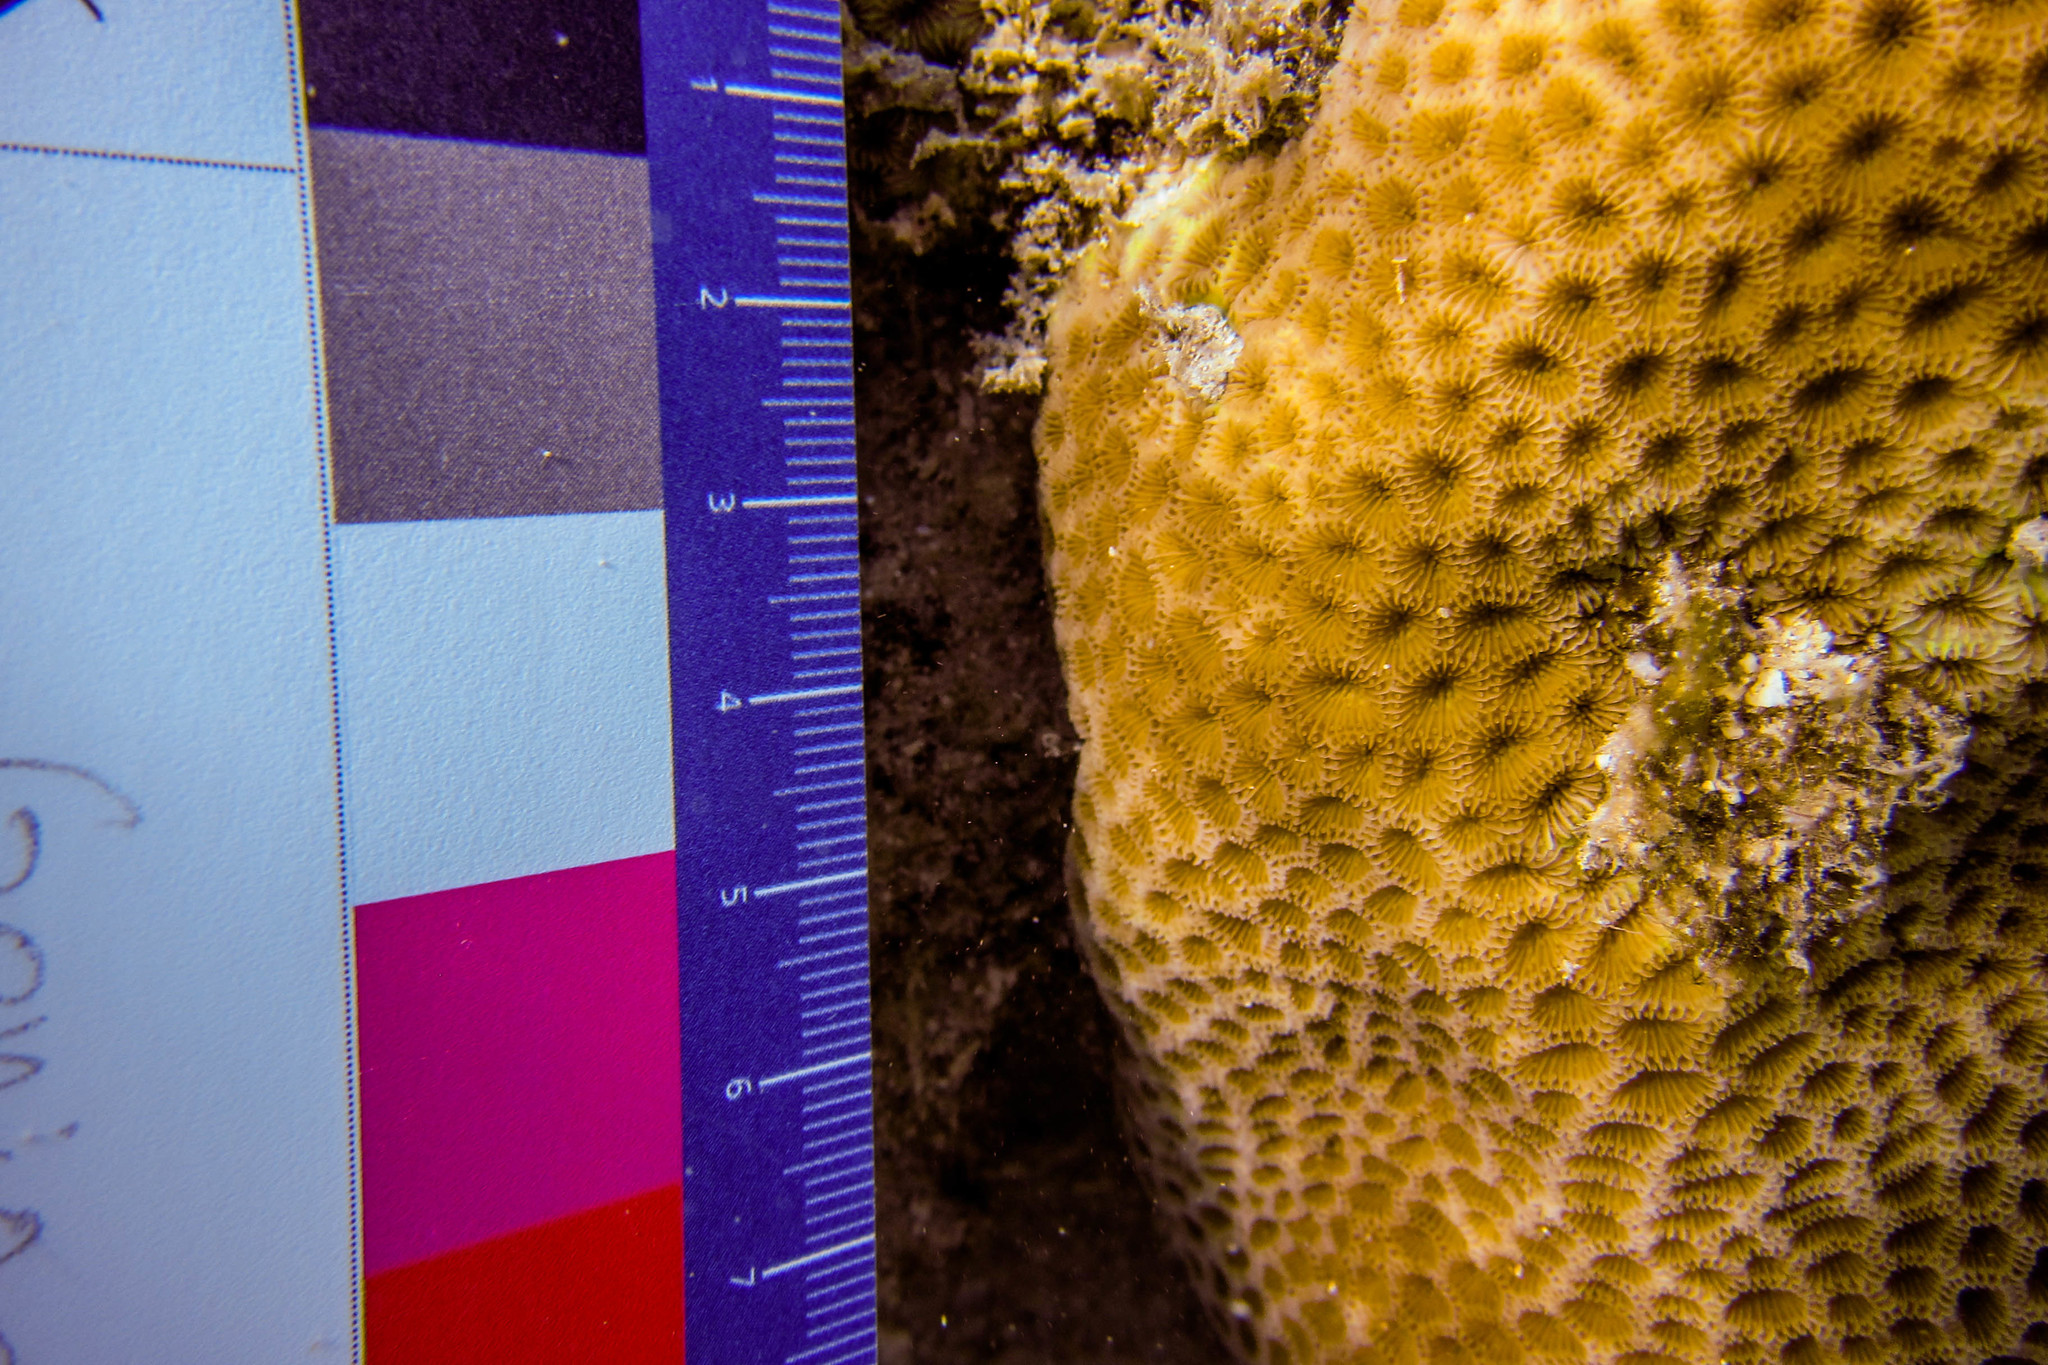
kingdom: Animalia
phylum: Cnidaria
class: Anthozoa
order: Scleractinia
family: Euphylliidae
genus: Coeloseris
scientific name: Coeloseris mayeri
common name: Tombstone coral
